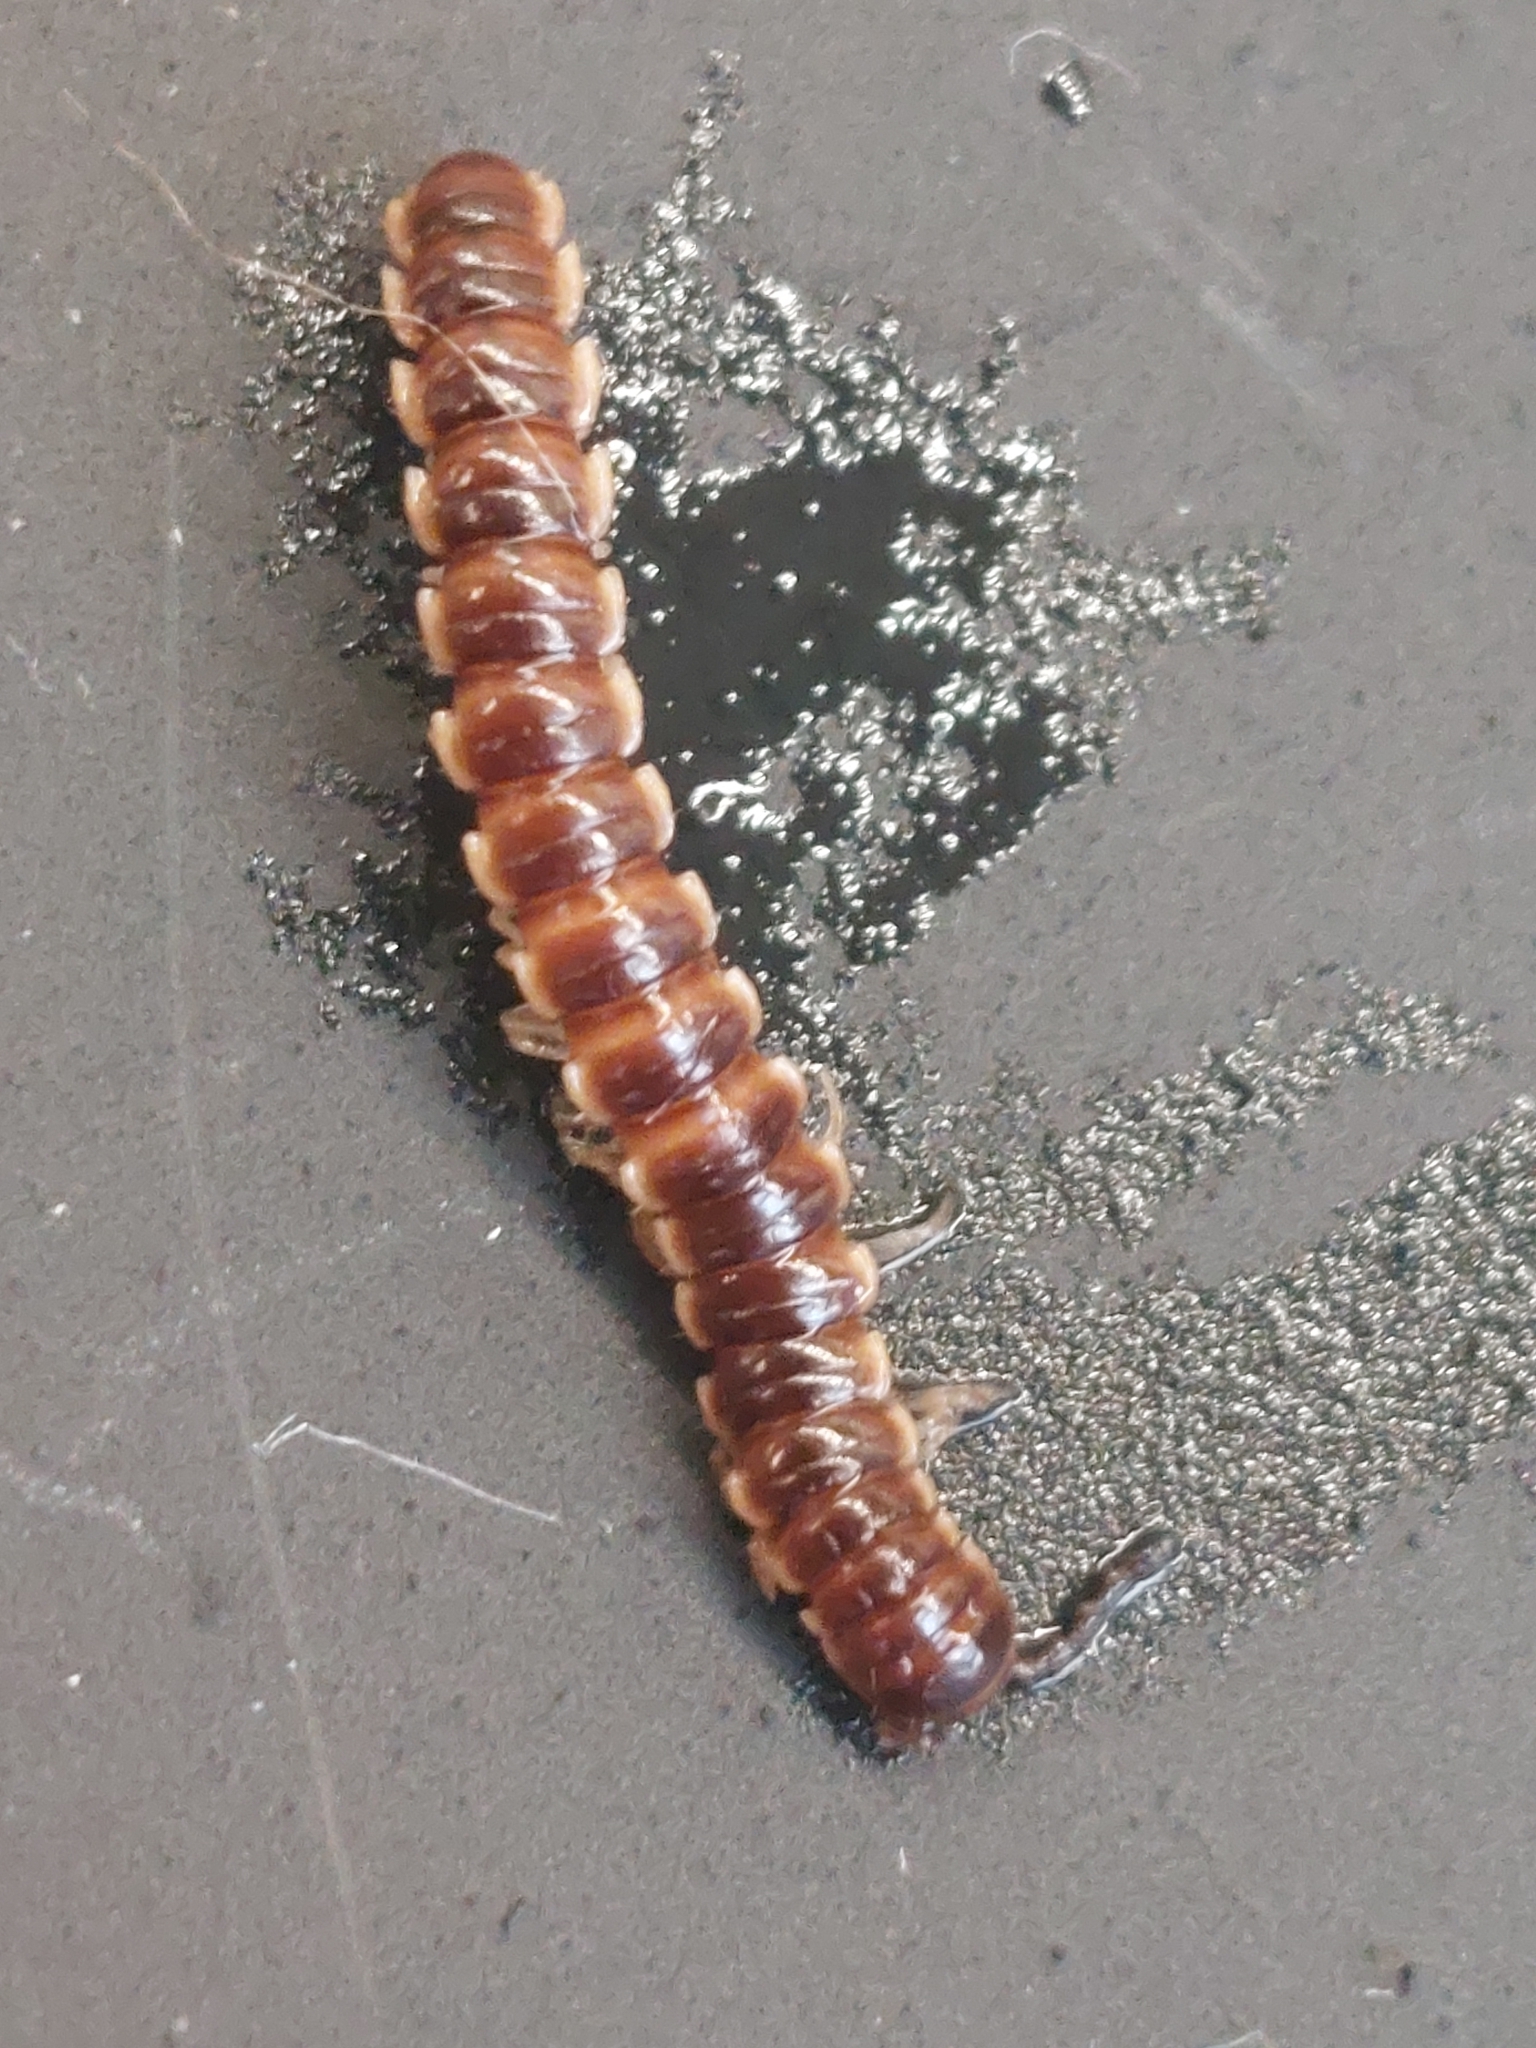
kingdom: Animalia
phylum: Arthropoda
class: Diplopoda
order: Polydesmida
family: Paradoxosomatidae
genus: Oxidus
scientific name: Oxidus gracilis
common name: Greenhouse millipede
